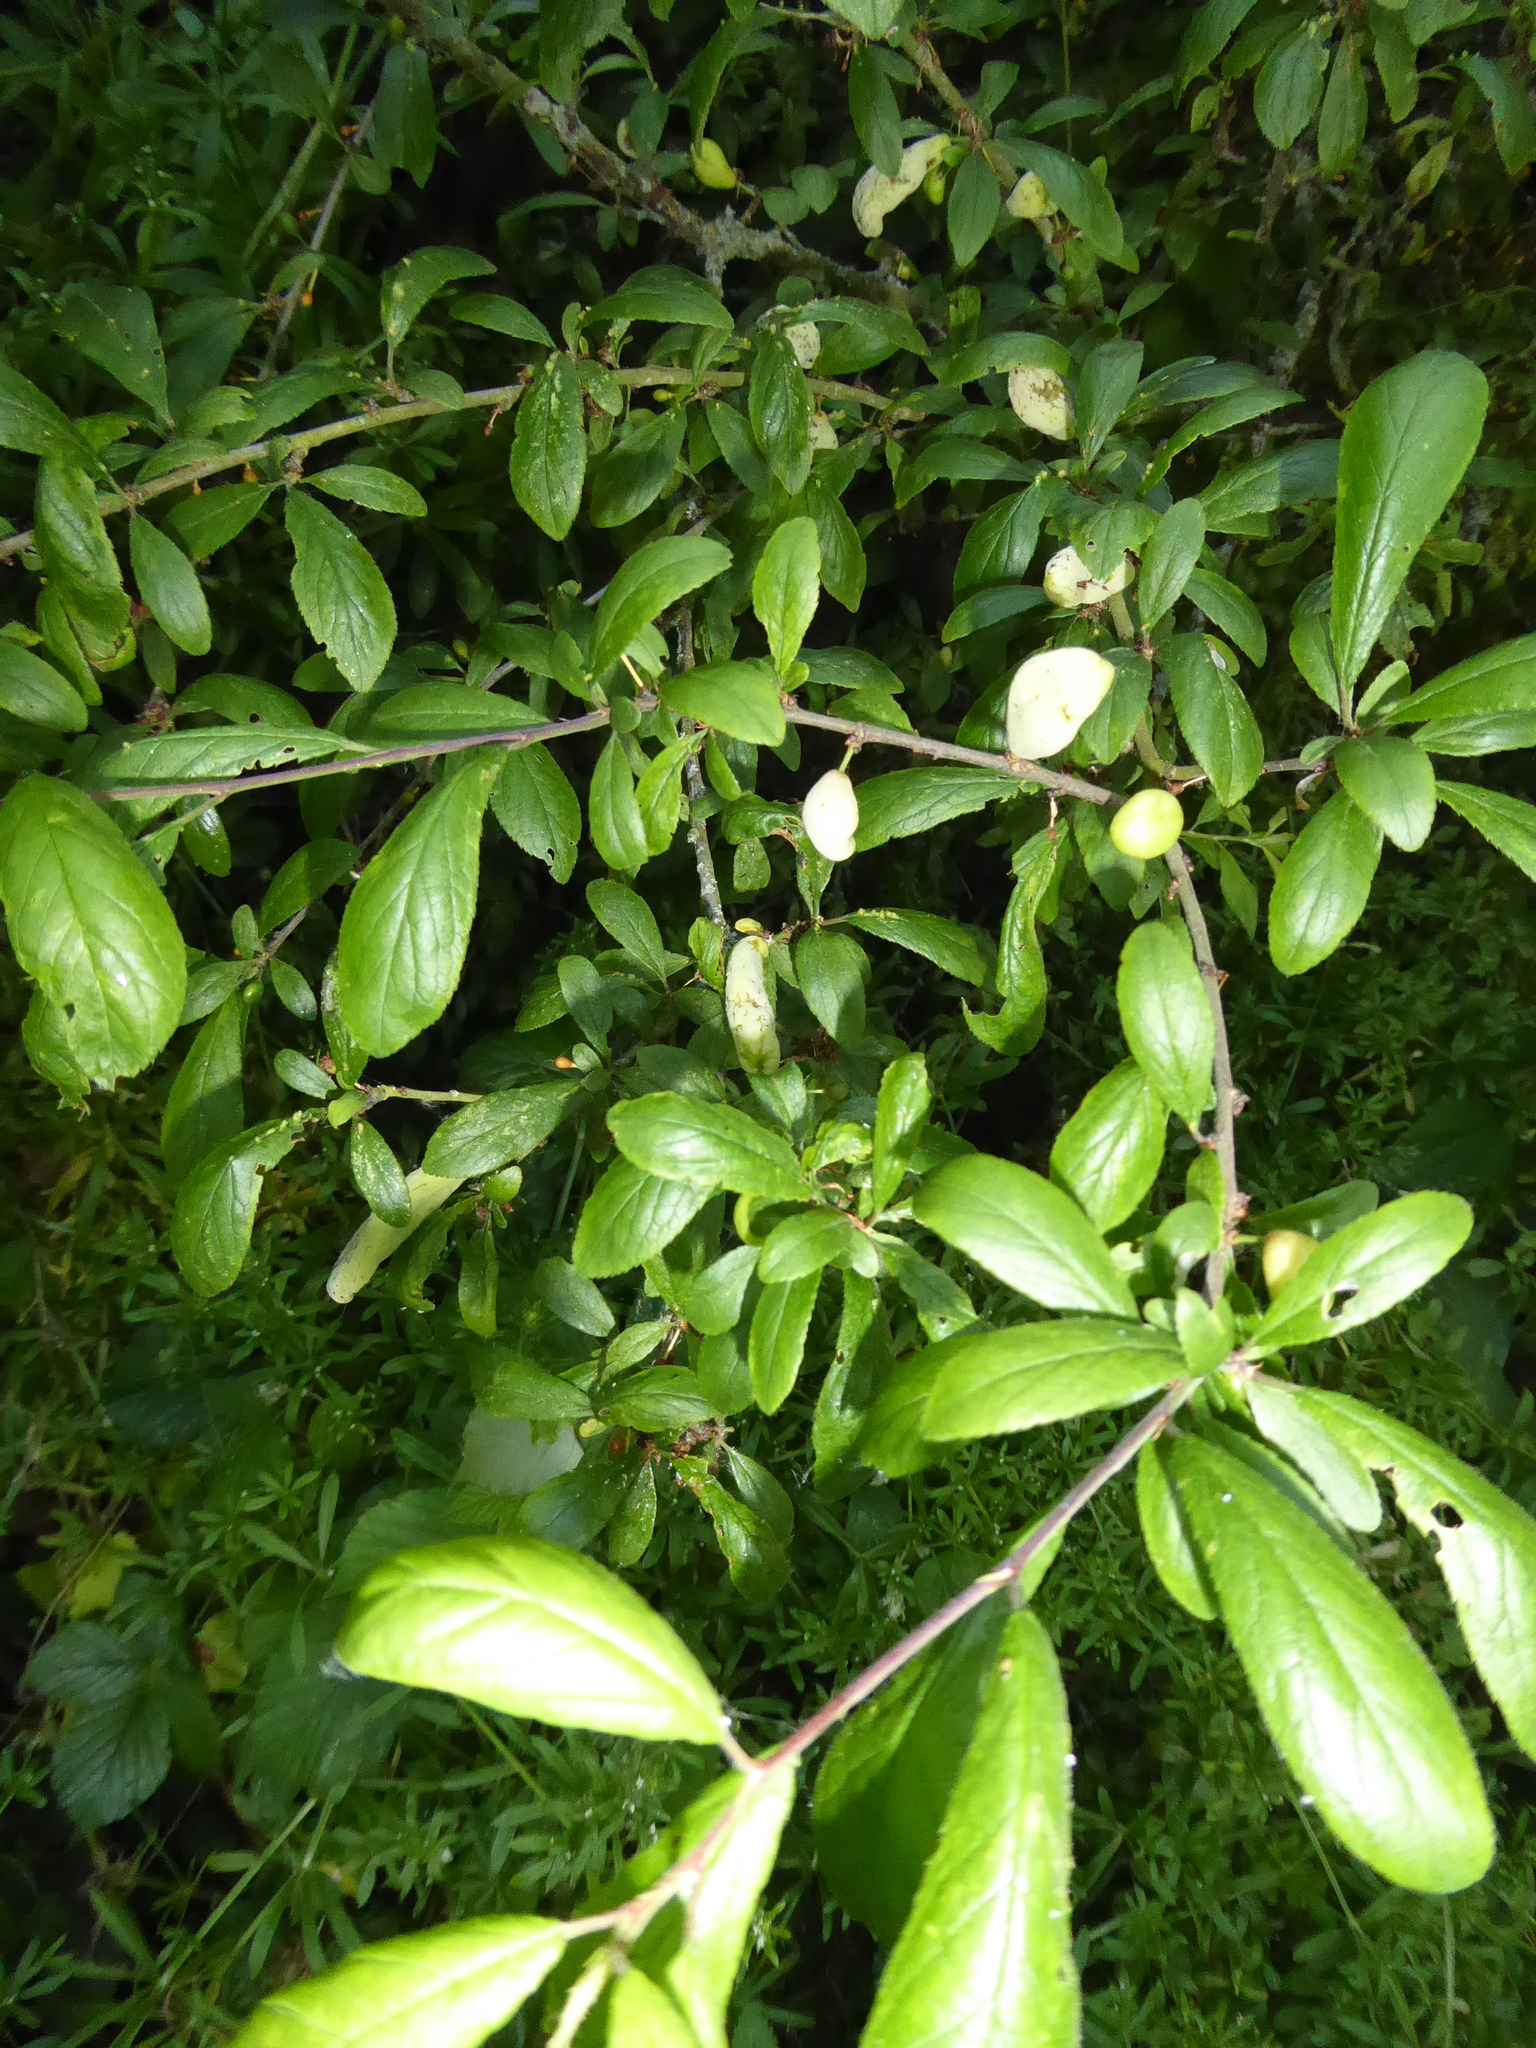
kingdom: Fungi
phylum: Ascomycota
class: Taphrinomycetes
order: Taphrinales
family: Taphrinaceae
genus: Taphrina
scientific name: Taphrina pruni
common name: Pocket plum
